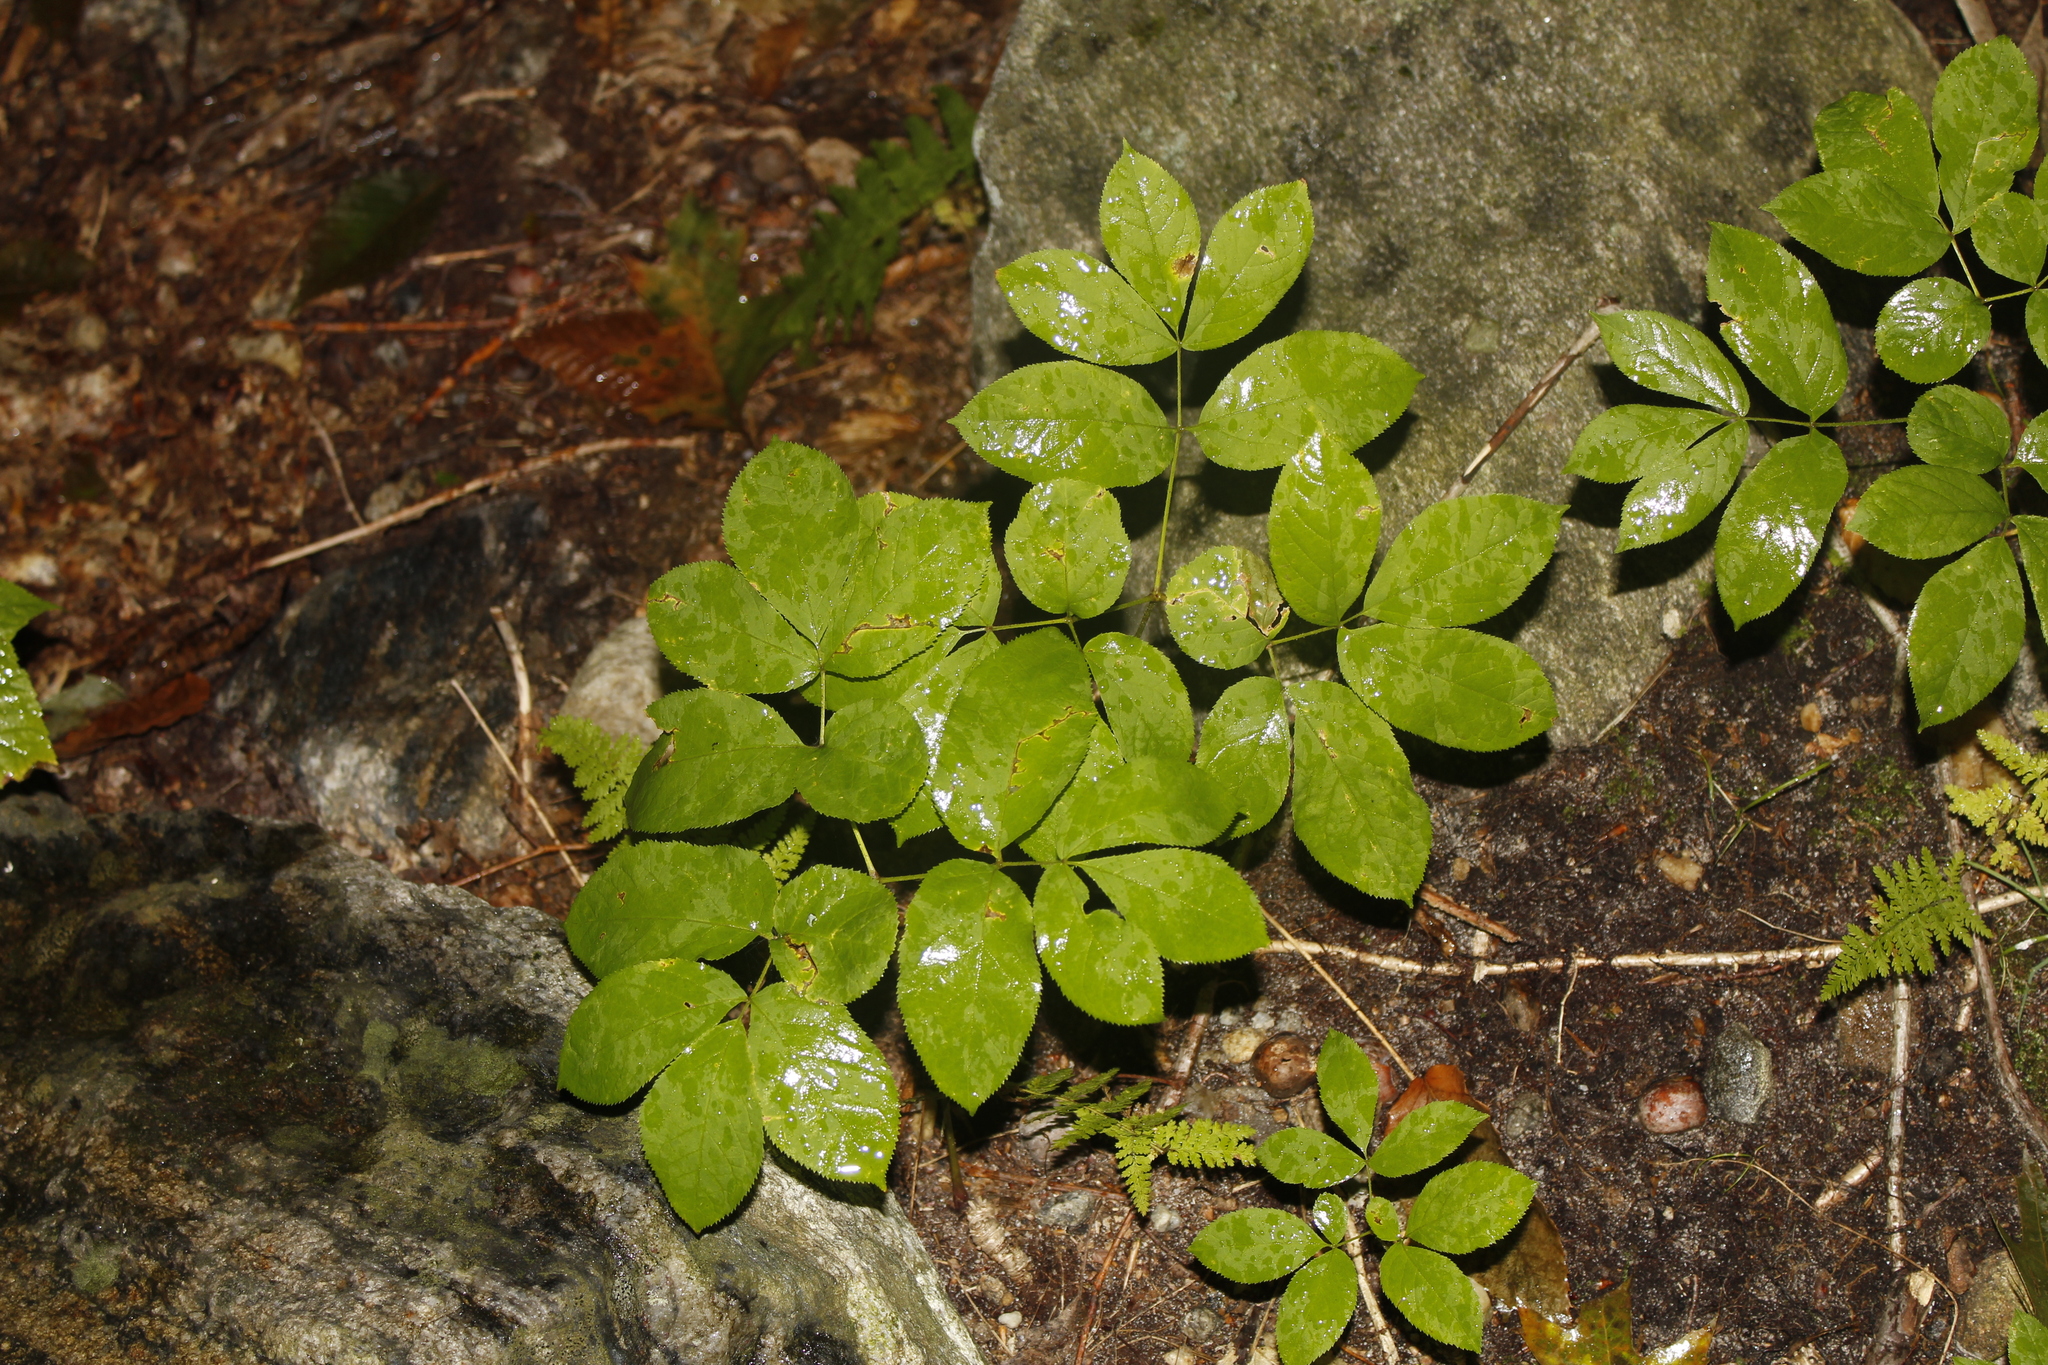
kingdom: Plantae
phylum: Tracheophyta
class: Magnoliopsida
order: Apiales
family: Araliaceae
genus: Aralia
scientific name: Aralia nudicaulis
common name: Wild sarsaparilla
